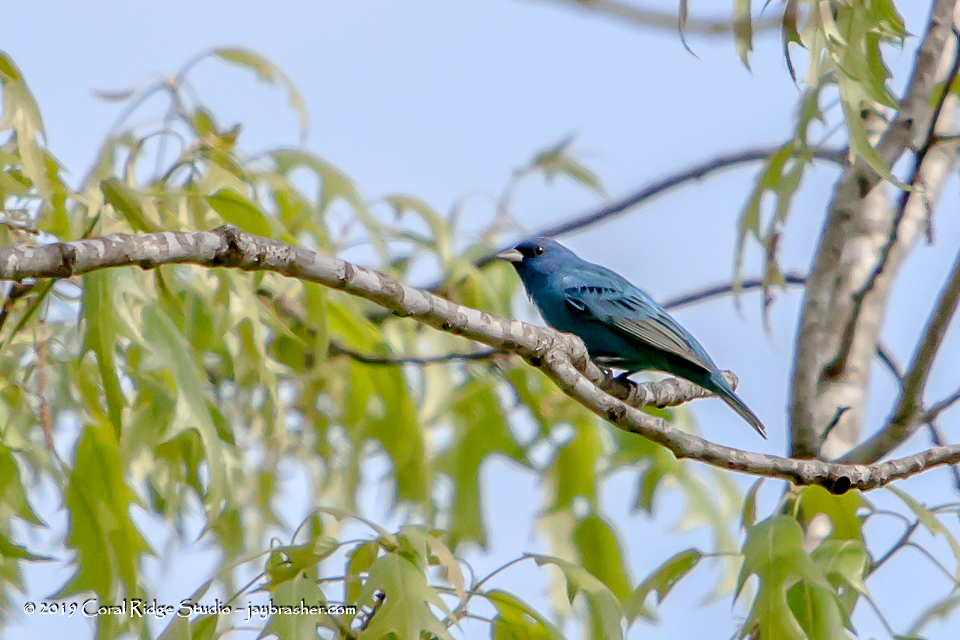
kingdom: Animalia
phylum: Chordata
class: Aves
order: Passeriformes
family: Cardinalidae
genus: Passerina
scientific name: Passerina cyanea
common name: Indigo bunting
